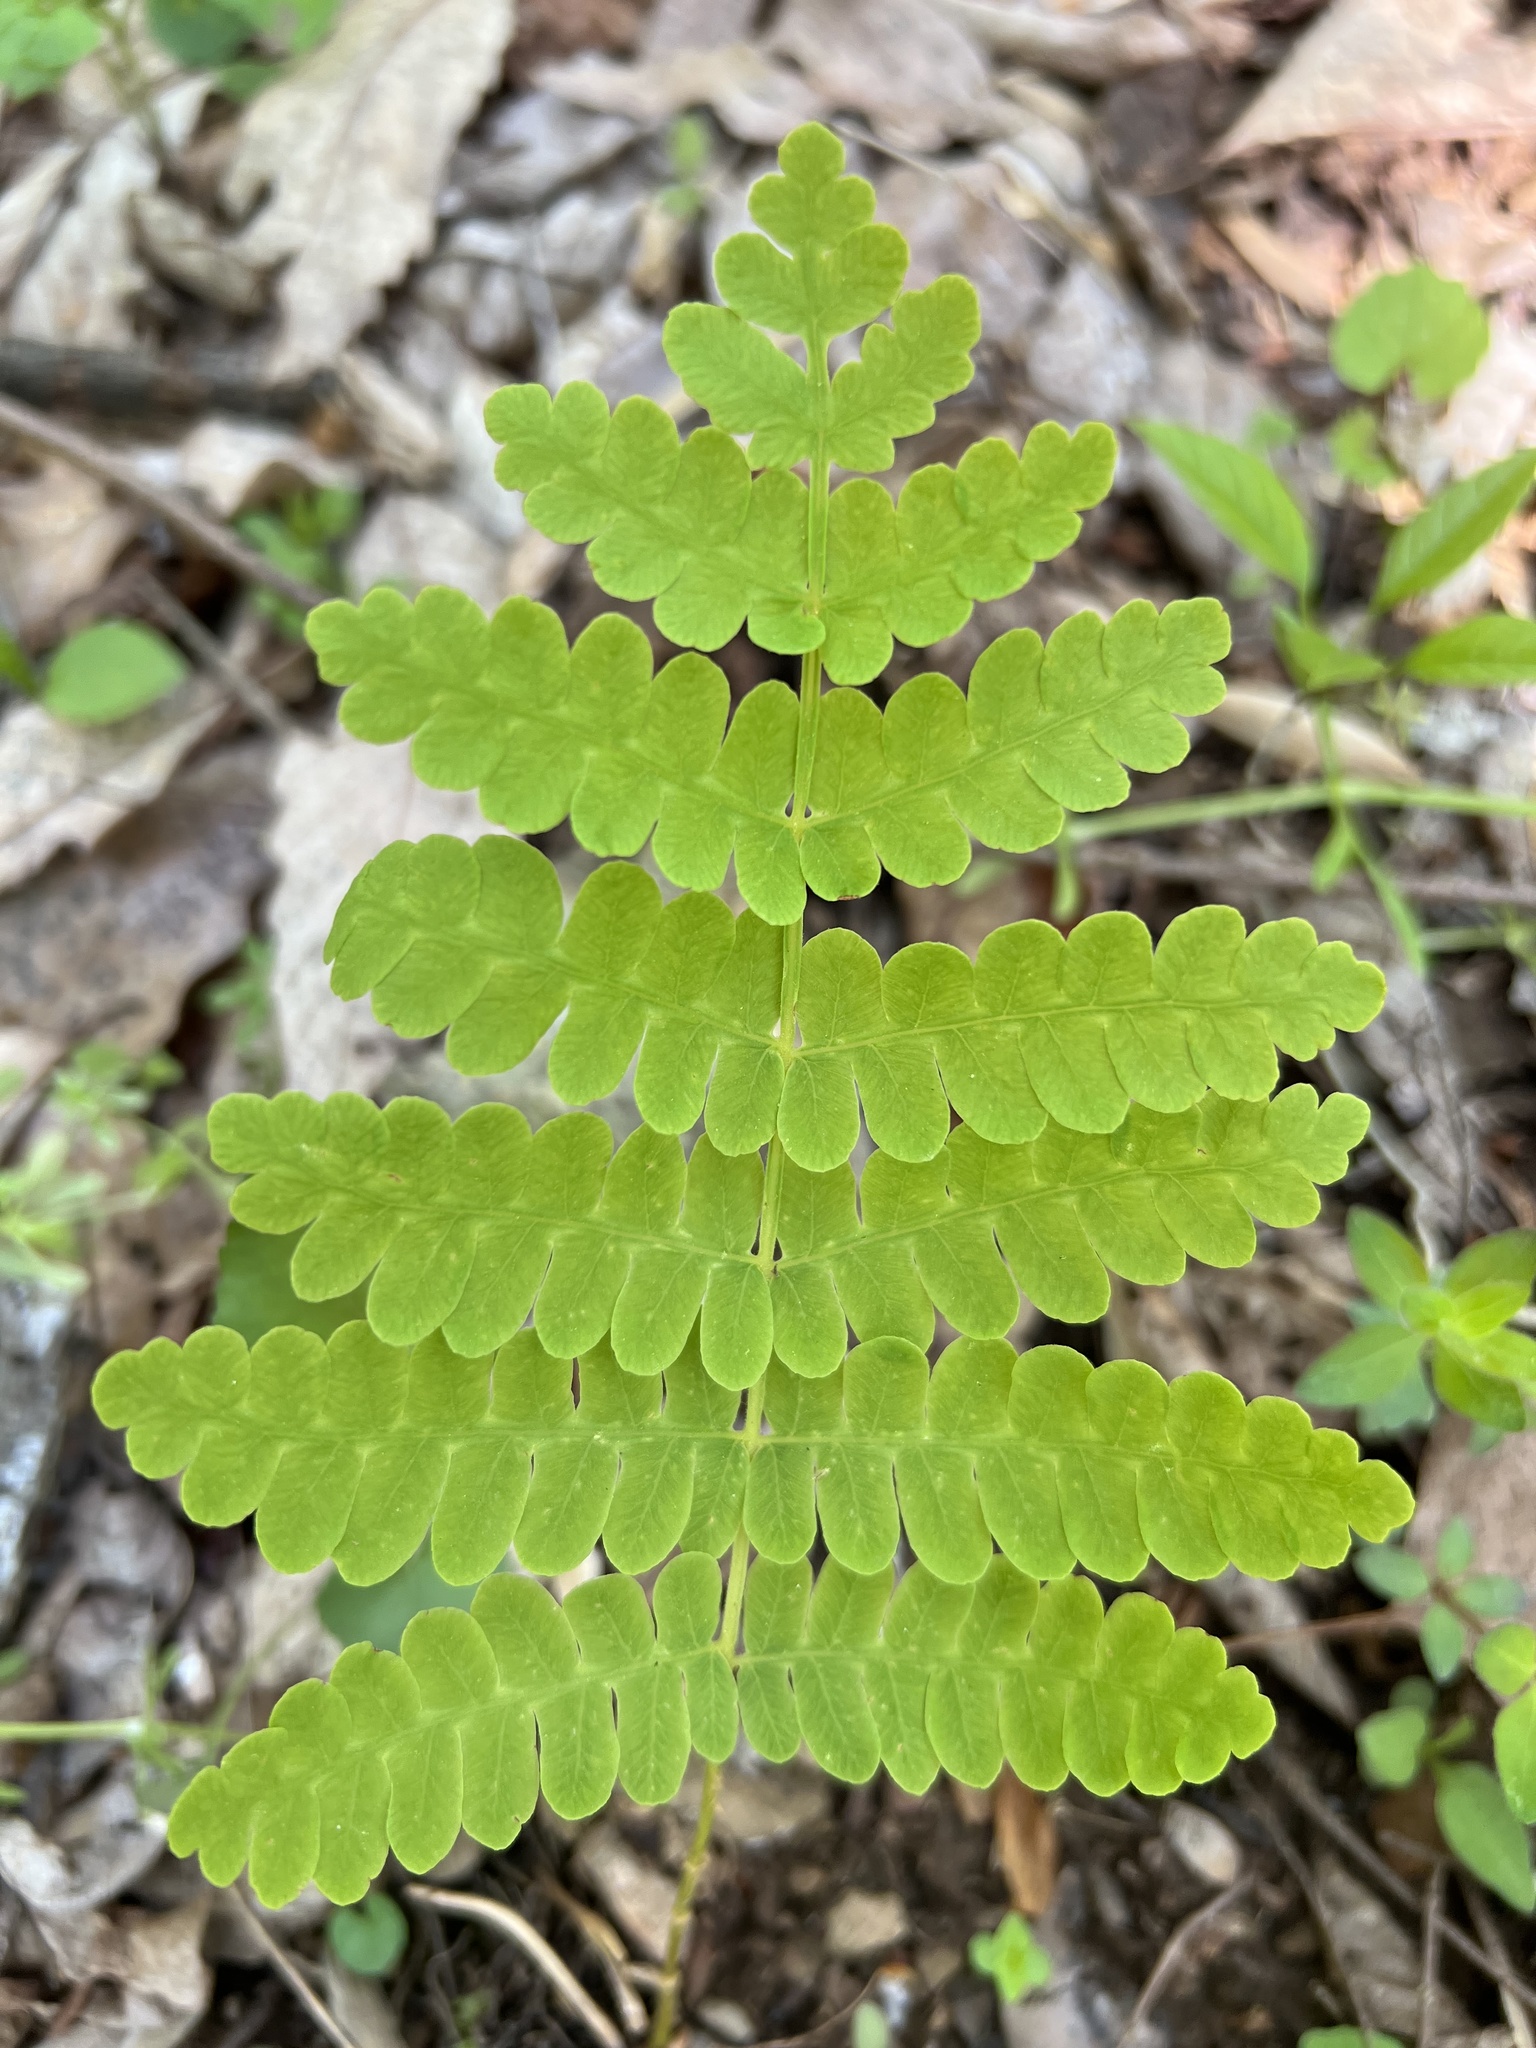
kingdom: Plantae
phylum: Tracheophyta
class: Polypodiopsida
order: Osmundales
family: Osmundaceae
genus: Claytosmunda
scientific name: Claytosmunda claytoniana
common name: Clayton's fern
